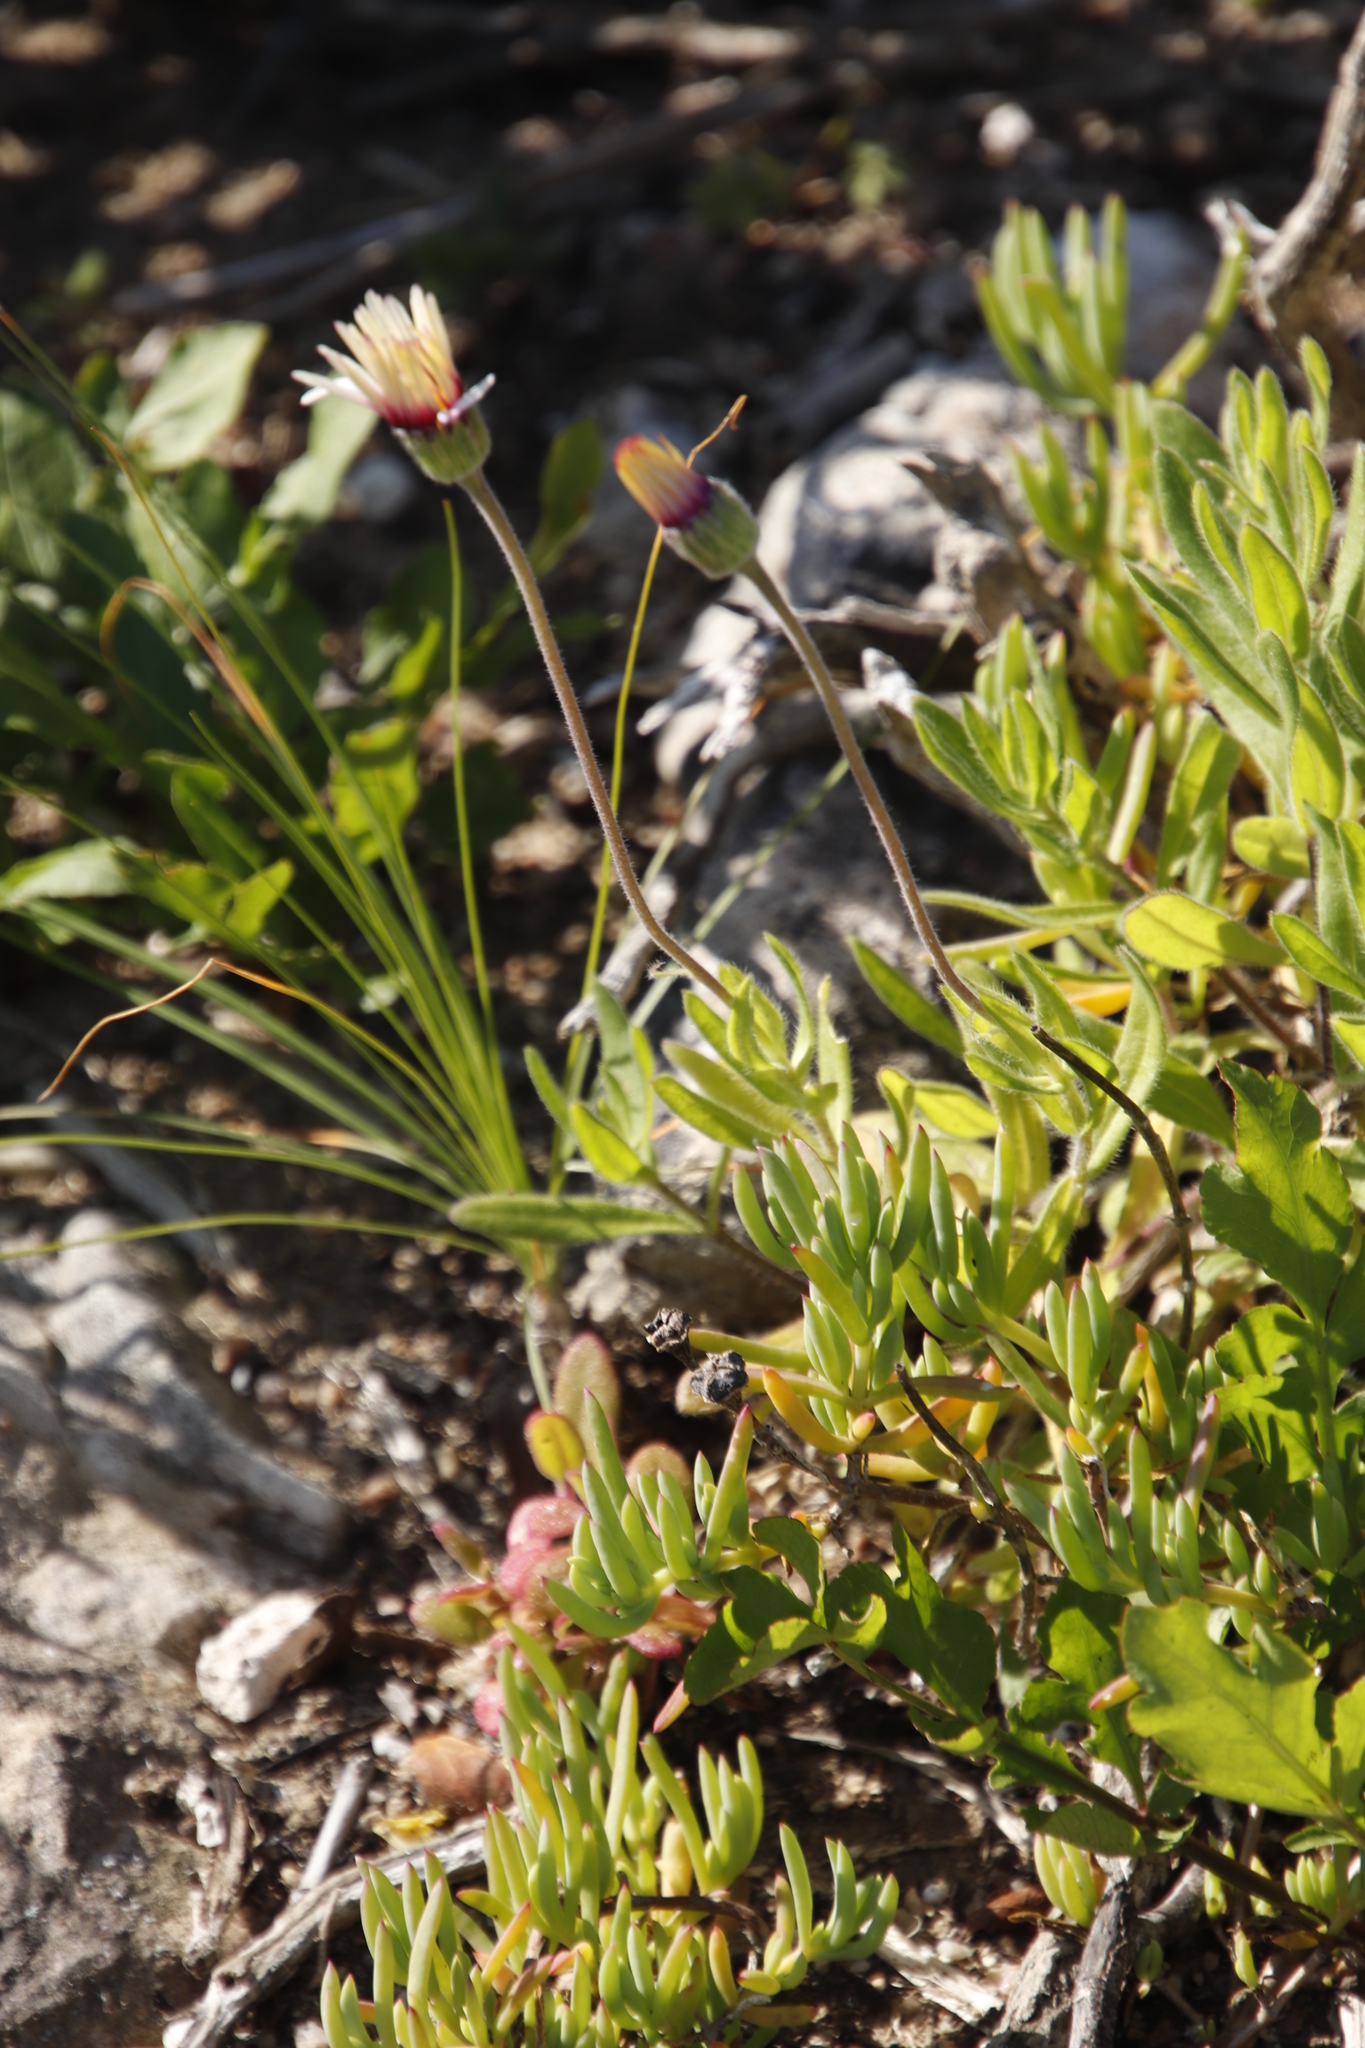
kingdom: Plantae
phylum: Tracheophyta
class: Magnoliopsida
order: Asterales
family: Asteraceae
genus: Crassothonna
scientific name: Crassothonna cylindrica
